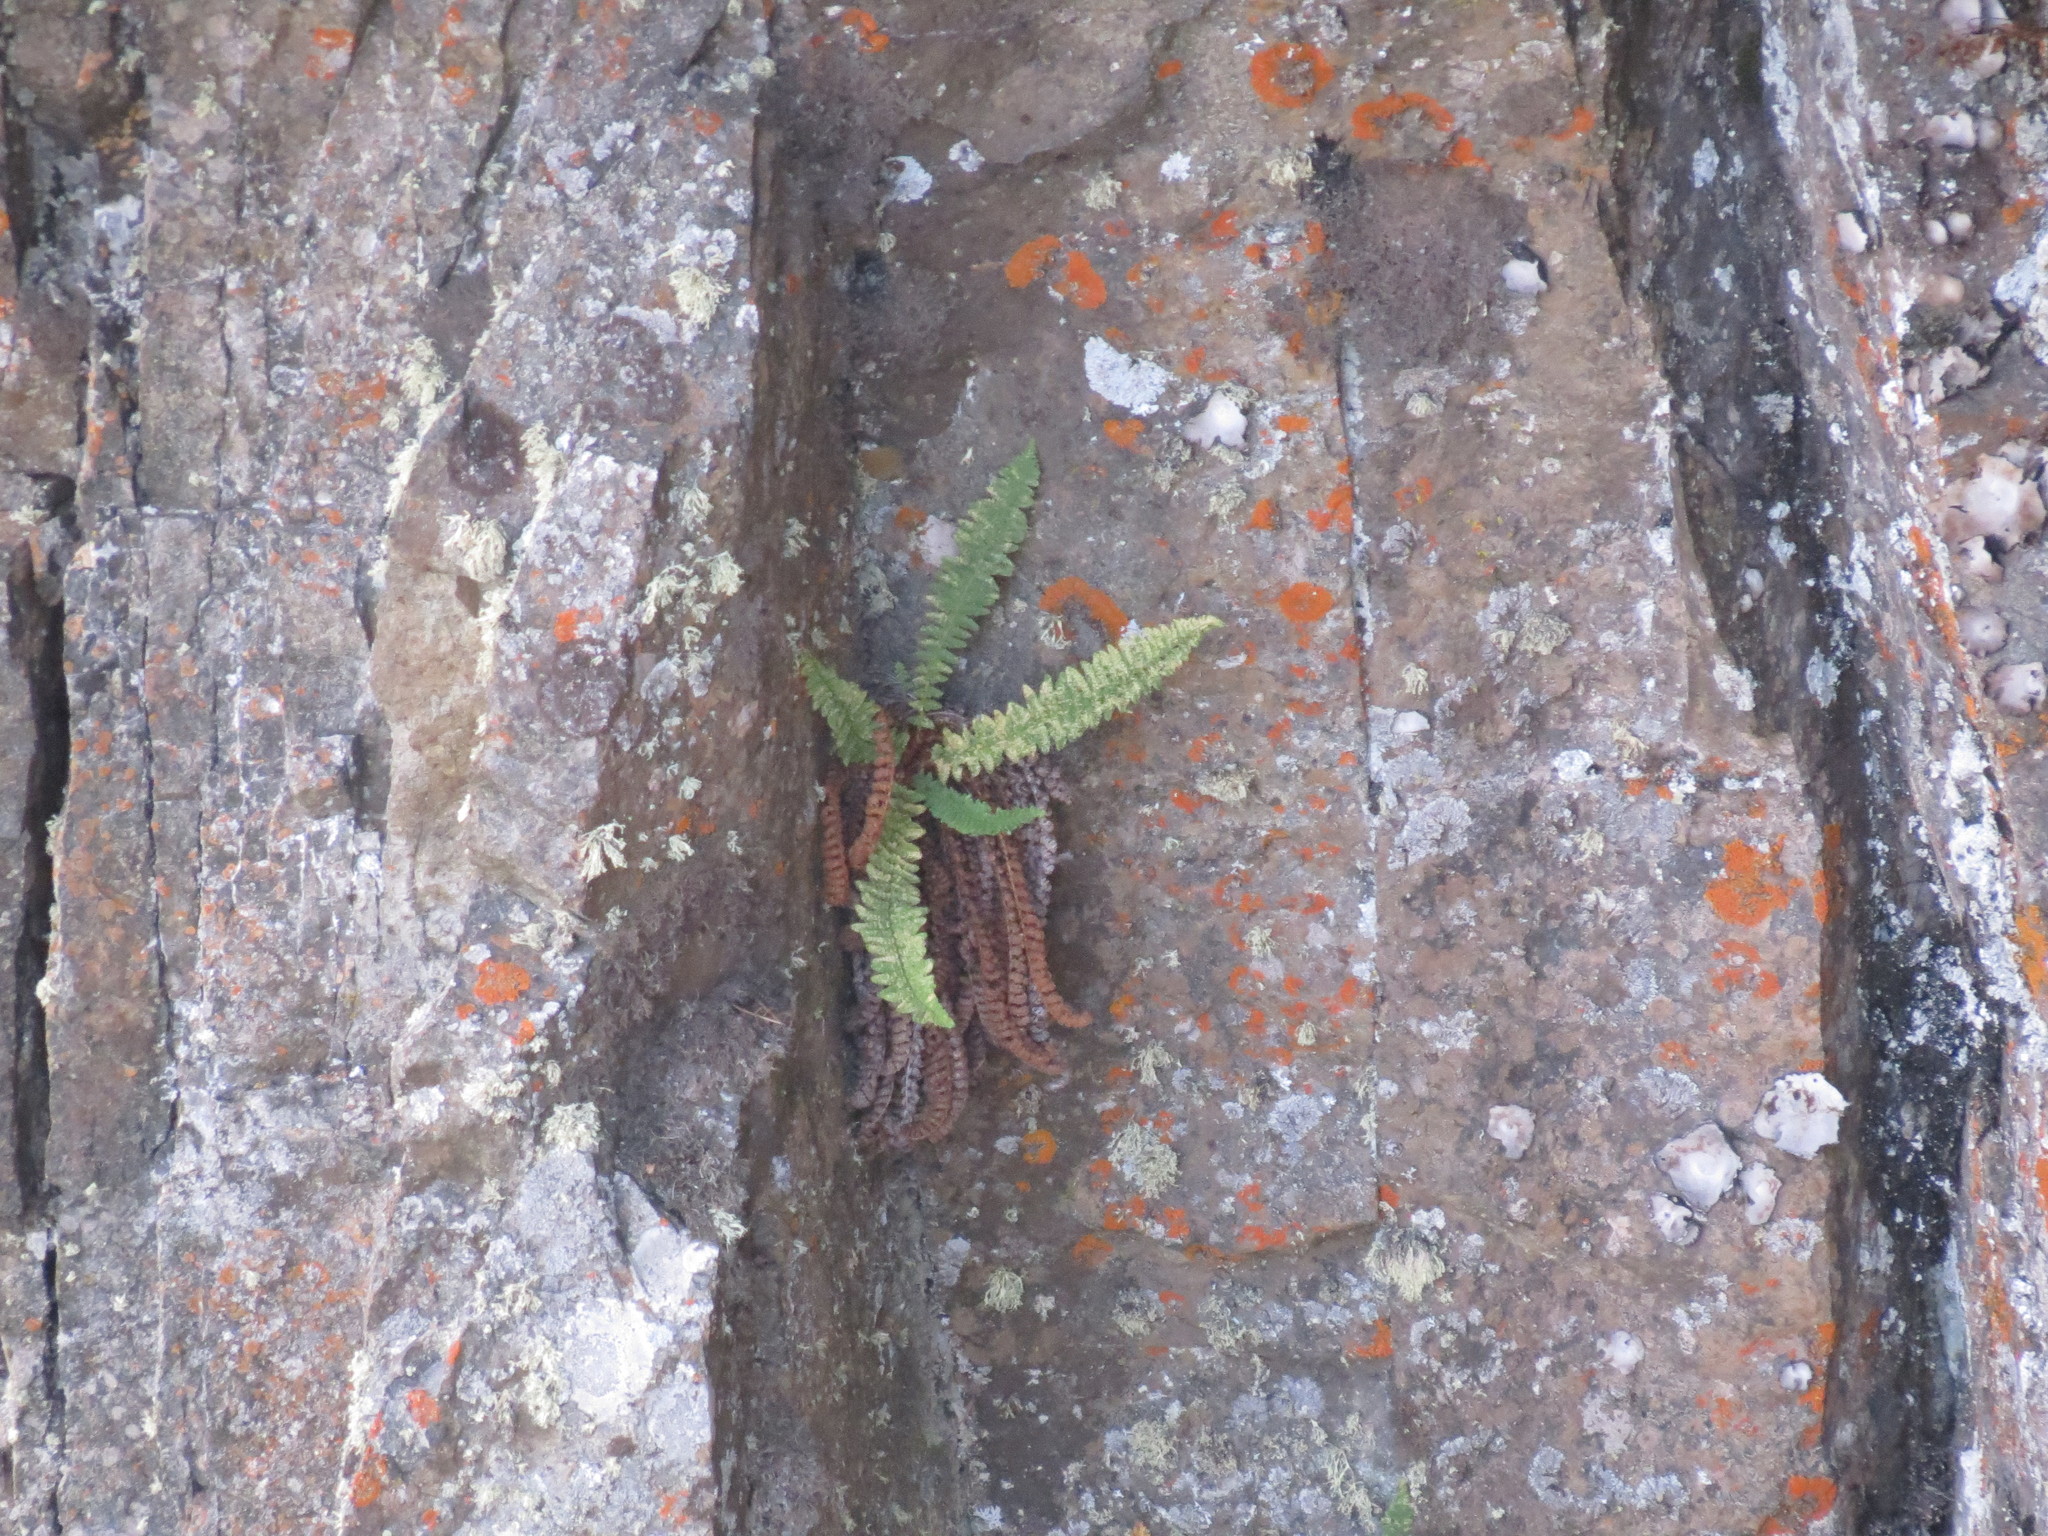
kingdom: Plantae
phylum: Tracheophyta
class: Polypodiopsida
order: Polypodiales
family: Dryopteridaceae
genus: Dryopteris
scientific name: Dryopteris fragrans
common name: Fragrant wood fern
